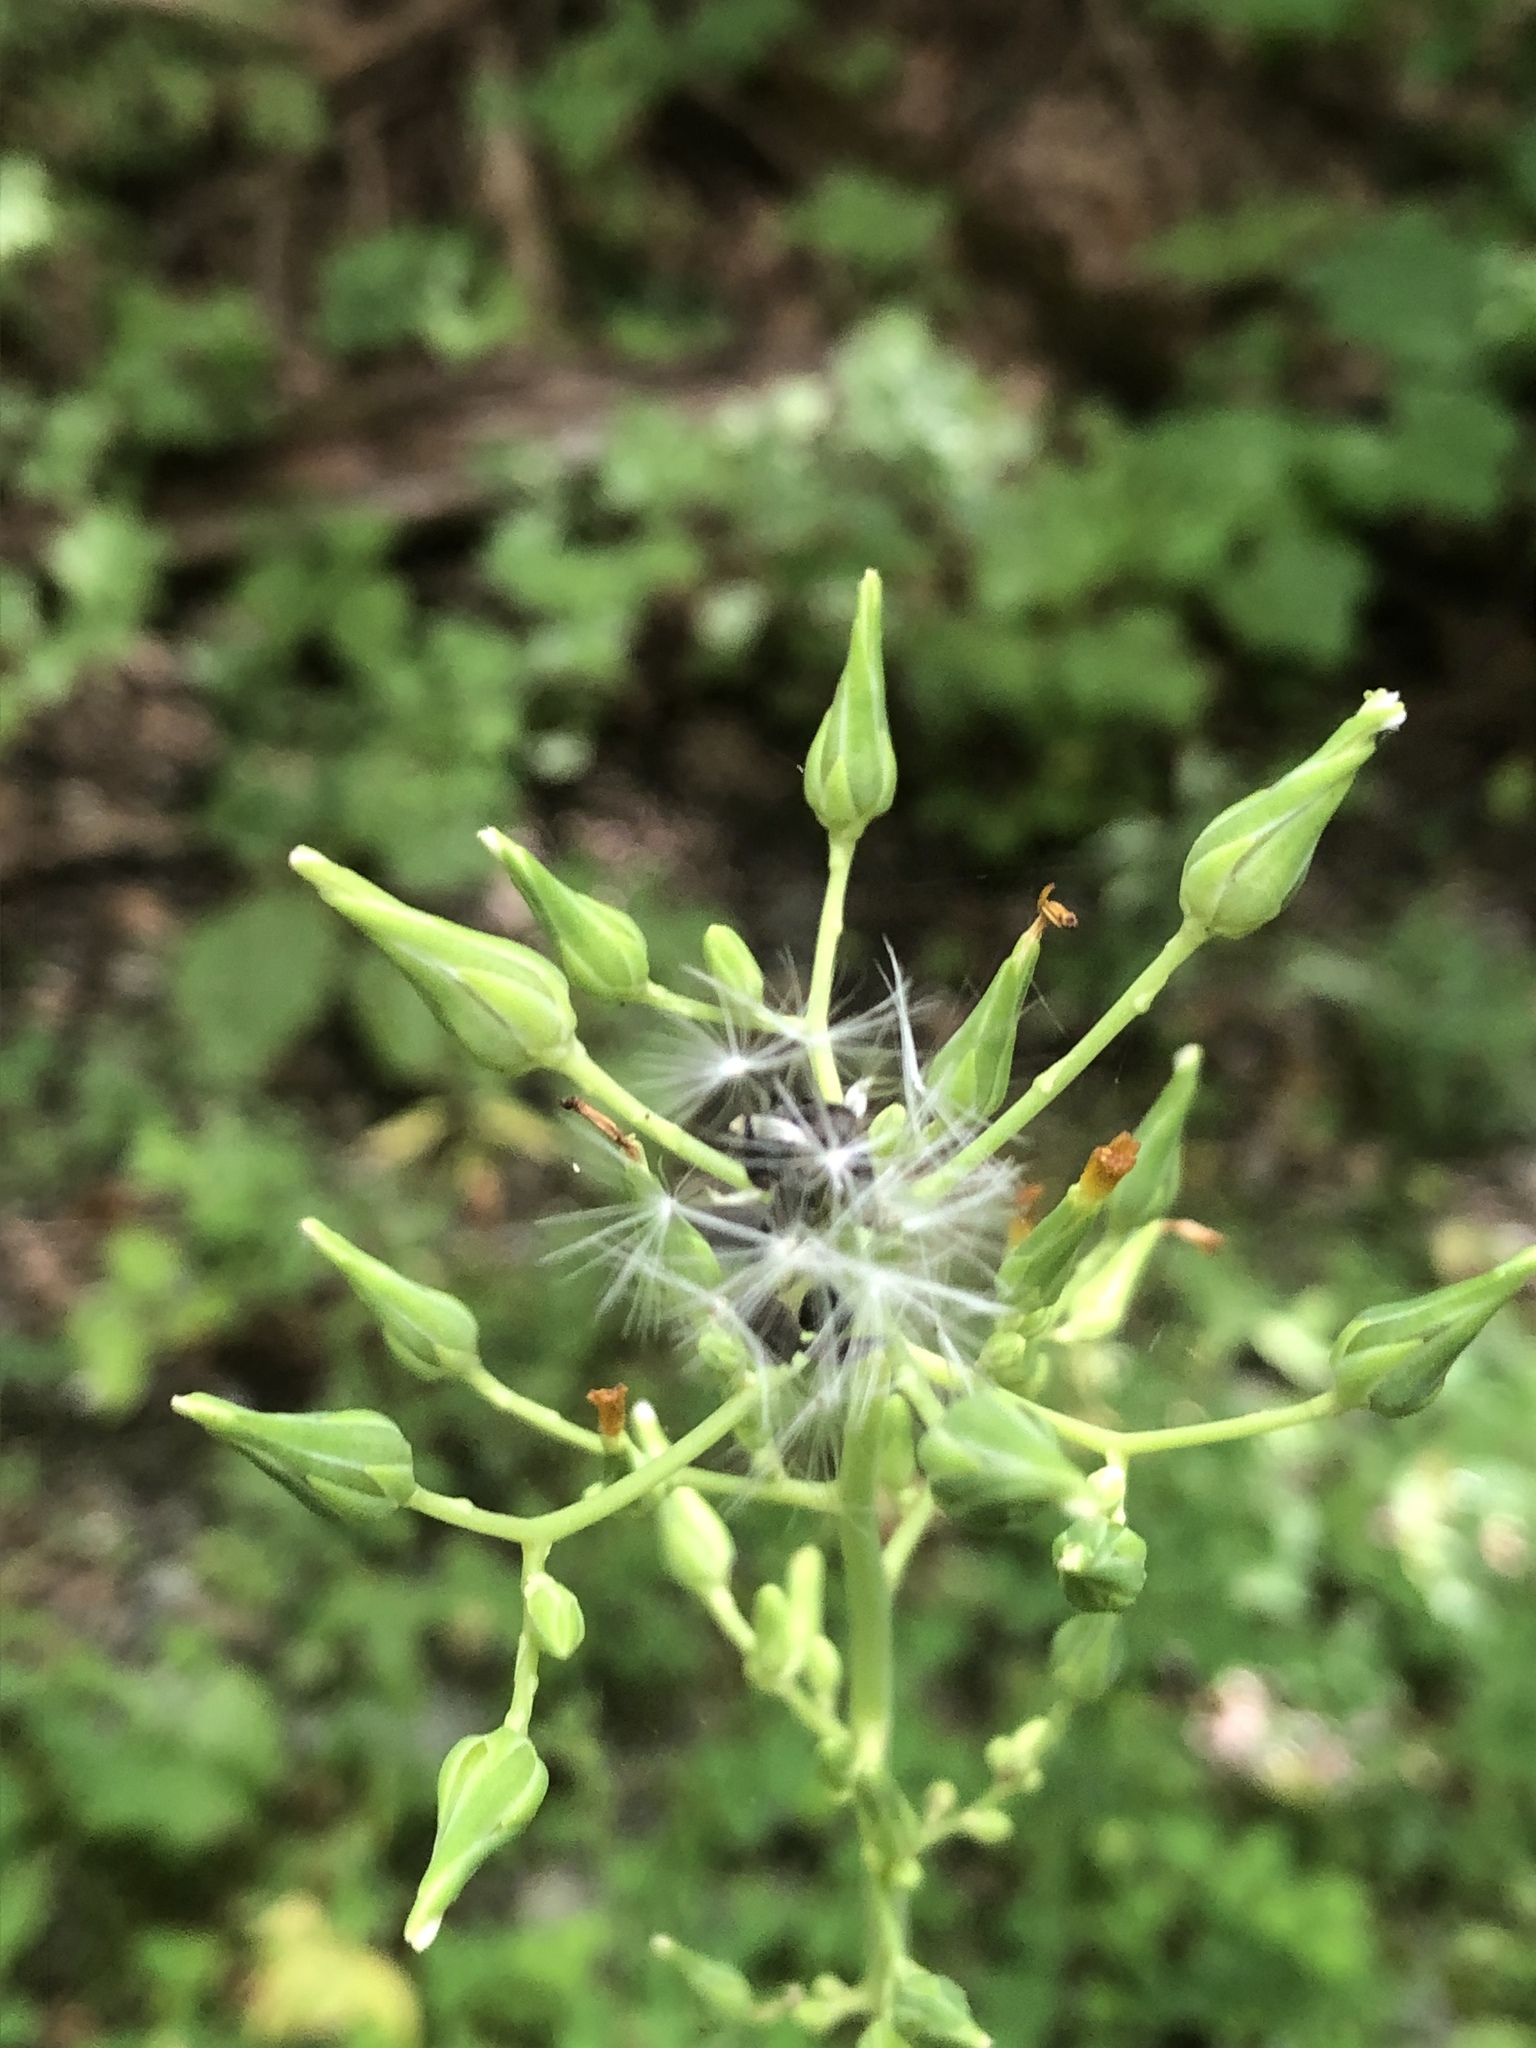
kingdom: Plantae
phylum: Tracheophyta
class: Magnoliopsida
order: Asterales
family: Asteraceae
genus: Lactuca
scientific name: Lactuca canadensis
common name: Canada lettuce
